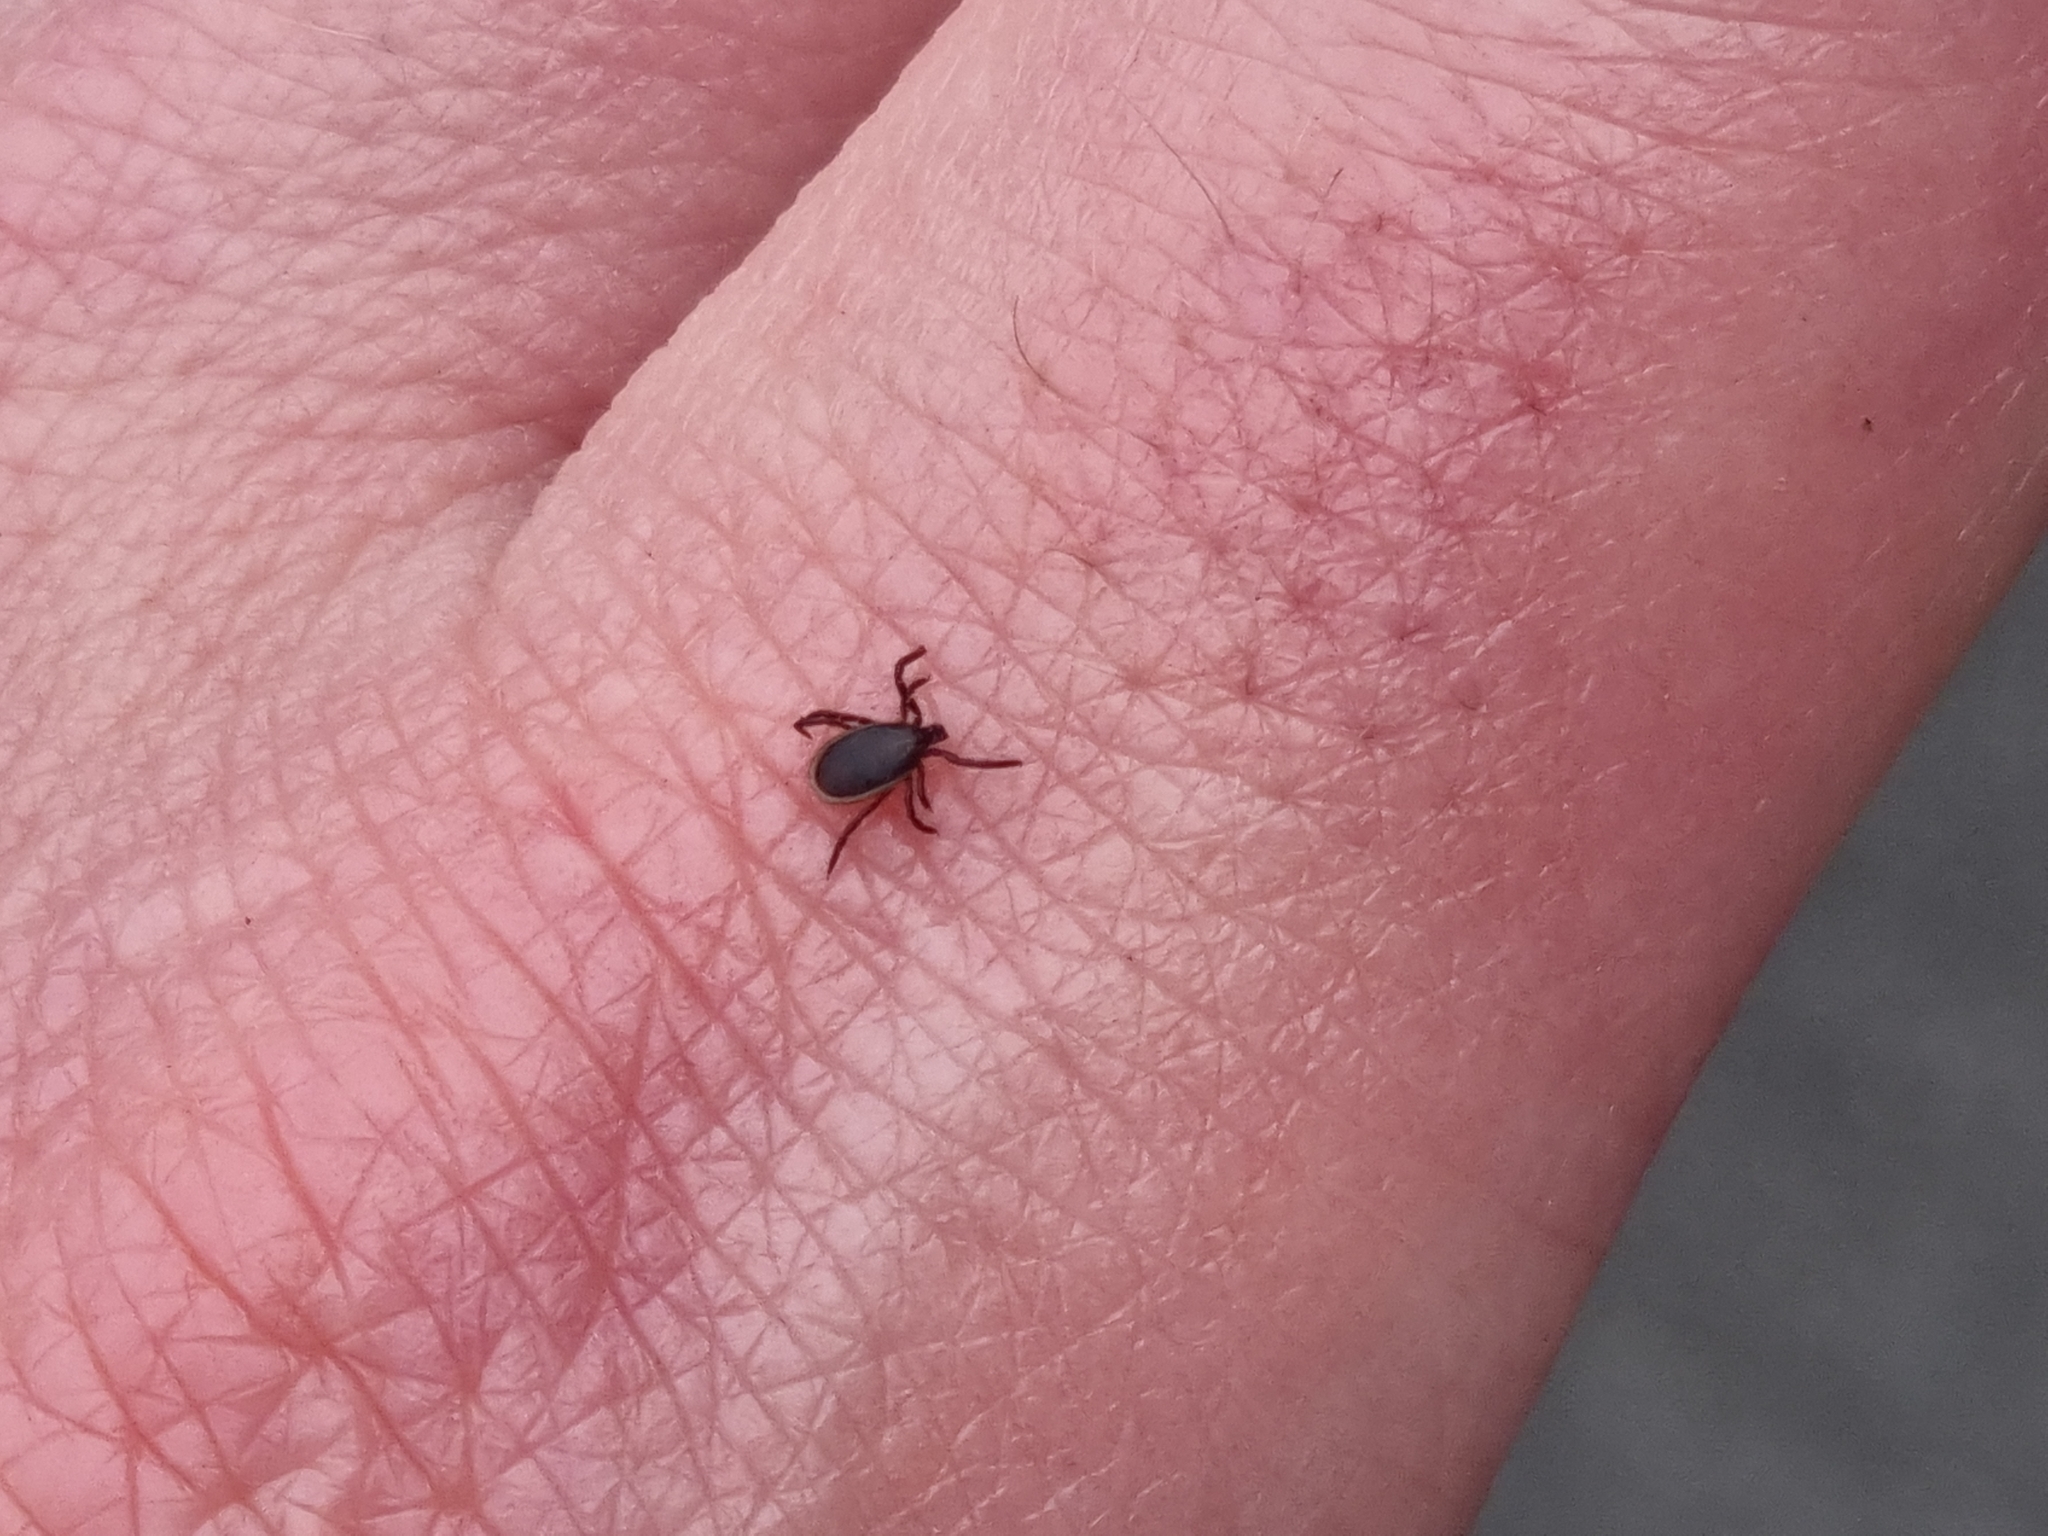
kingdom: Animalia
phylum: Arthropoda
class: Arachnida
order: Ixodida
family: Ixodidae
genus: Ixodes
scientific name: Ixodes ricinus
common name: Castor bean tick
